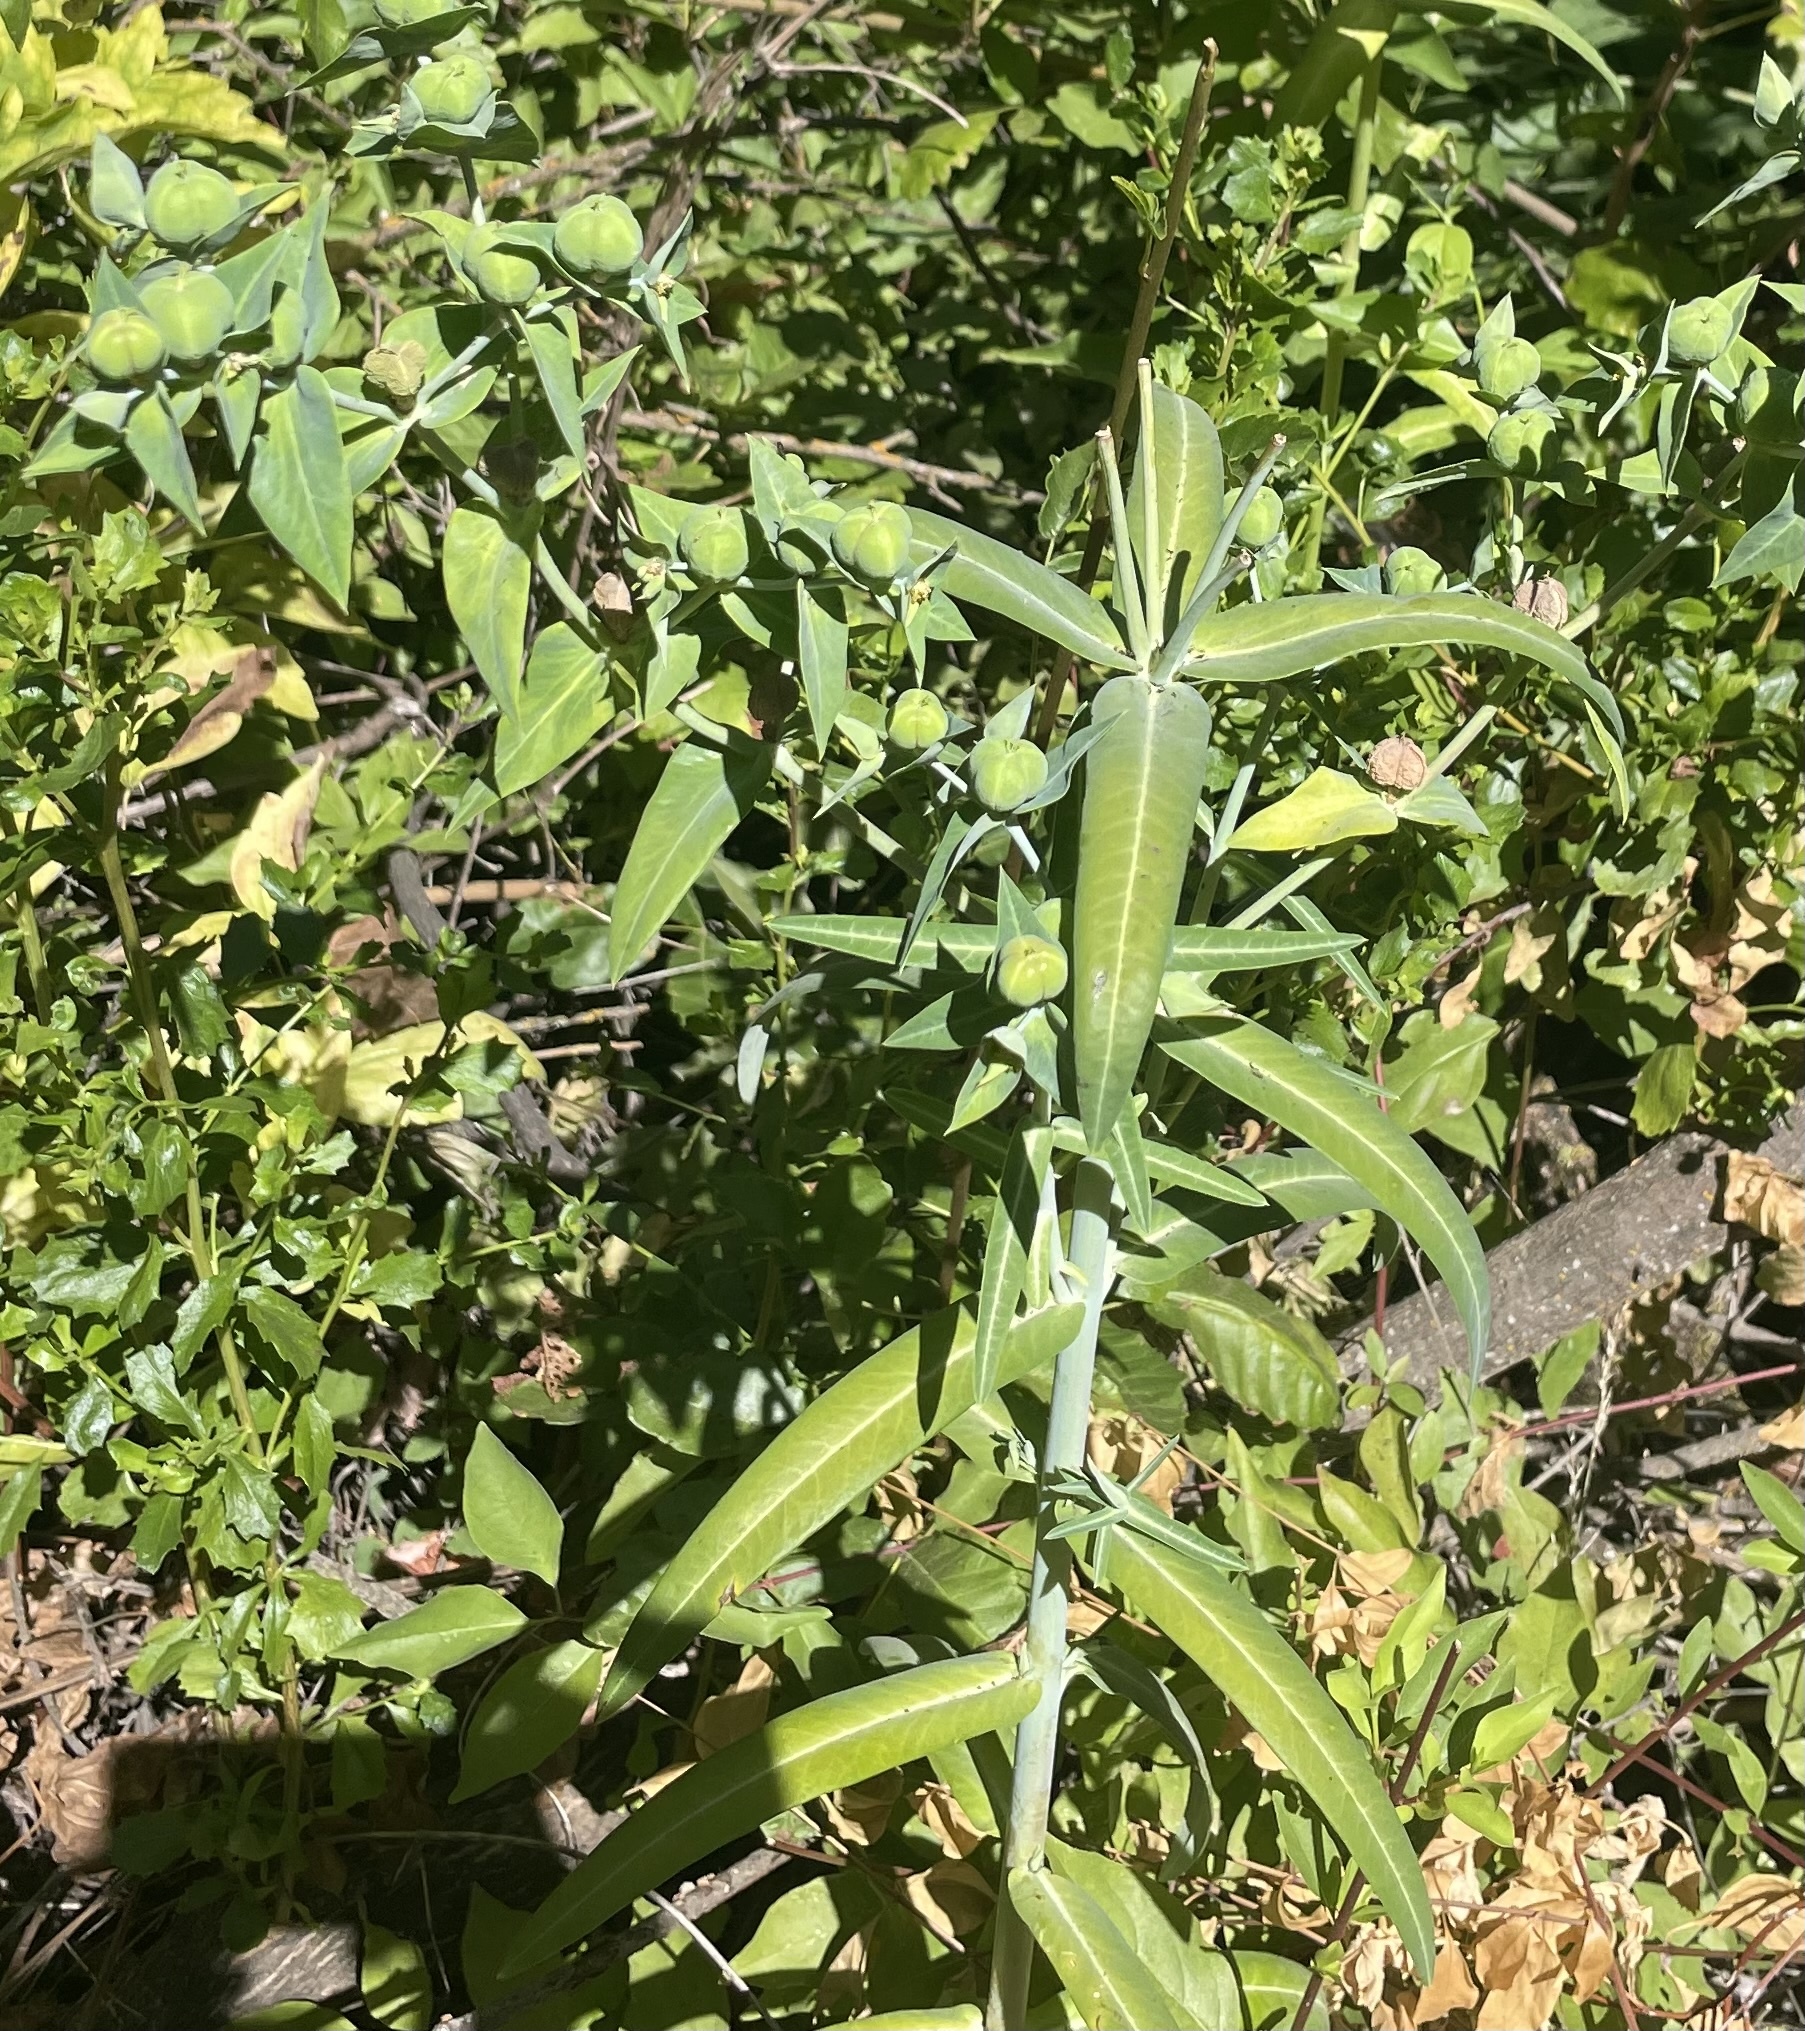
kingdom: Plantae
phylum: Tracheophyta
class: Magnoliopsida
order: Malpighiales
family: Euphorbiaceae
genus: Euphorbia
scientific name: Euphorbia lathyris
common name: Caper spurge
